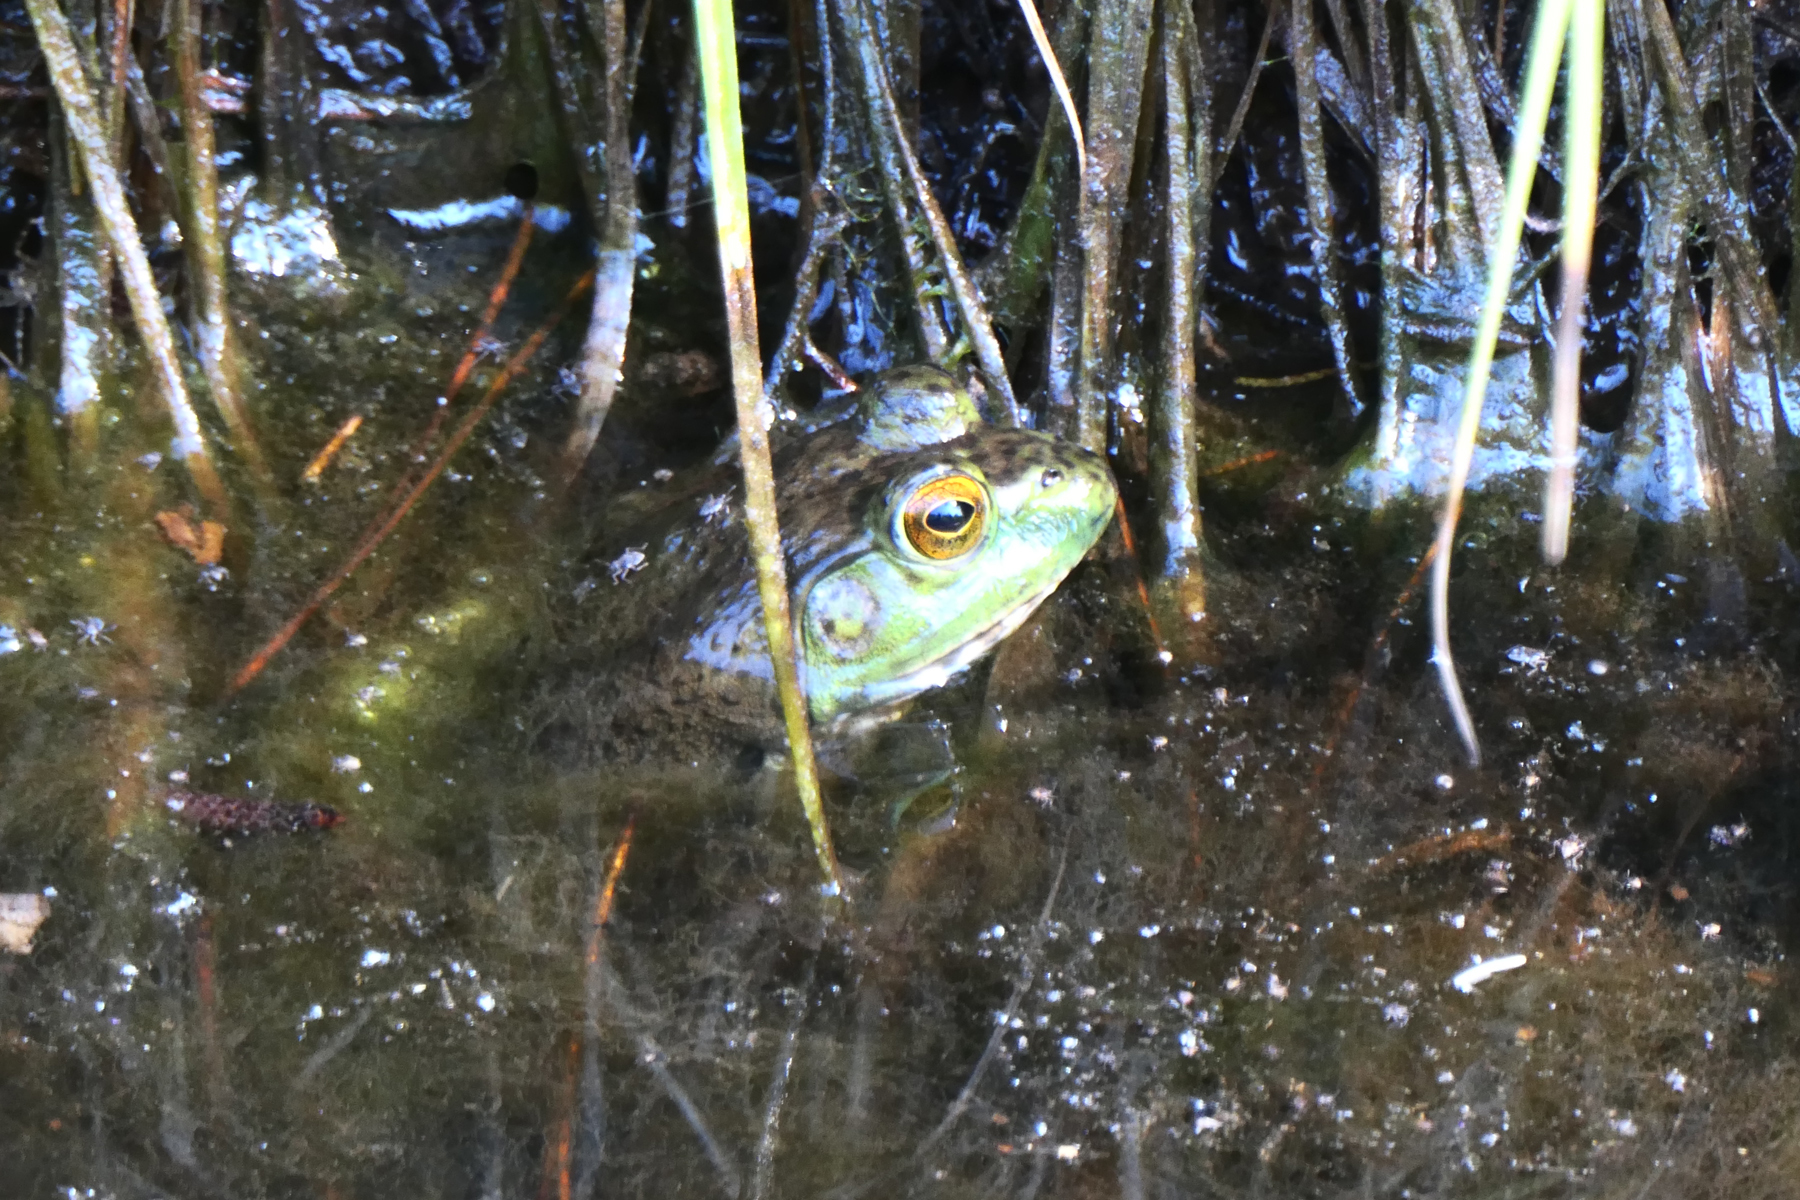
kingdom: Animalia
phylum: Chordata
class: Amphibia
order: Anura
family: Ranidae
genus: Lithobates
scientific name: Lithobates catesbeianus
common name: American bullfrog
